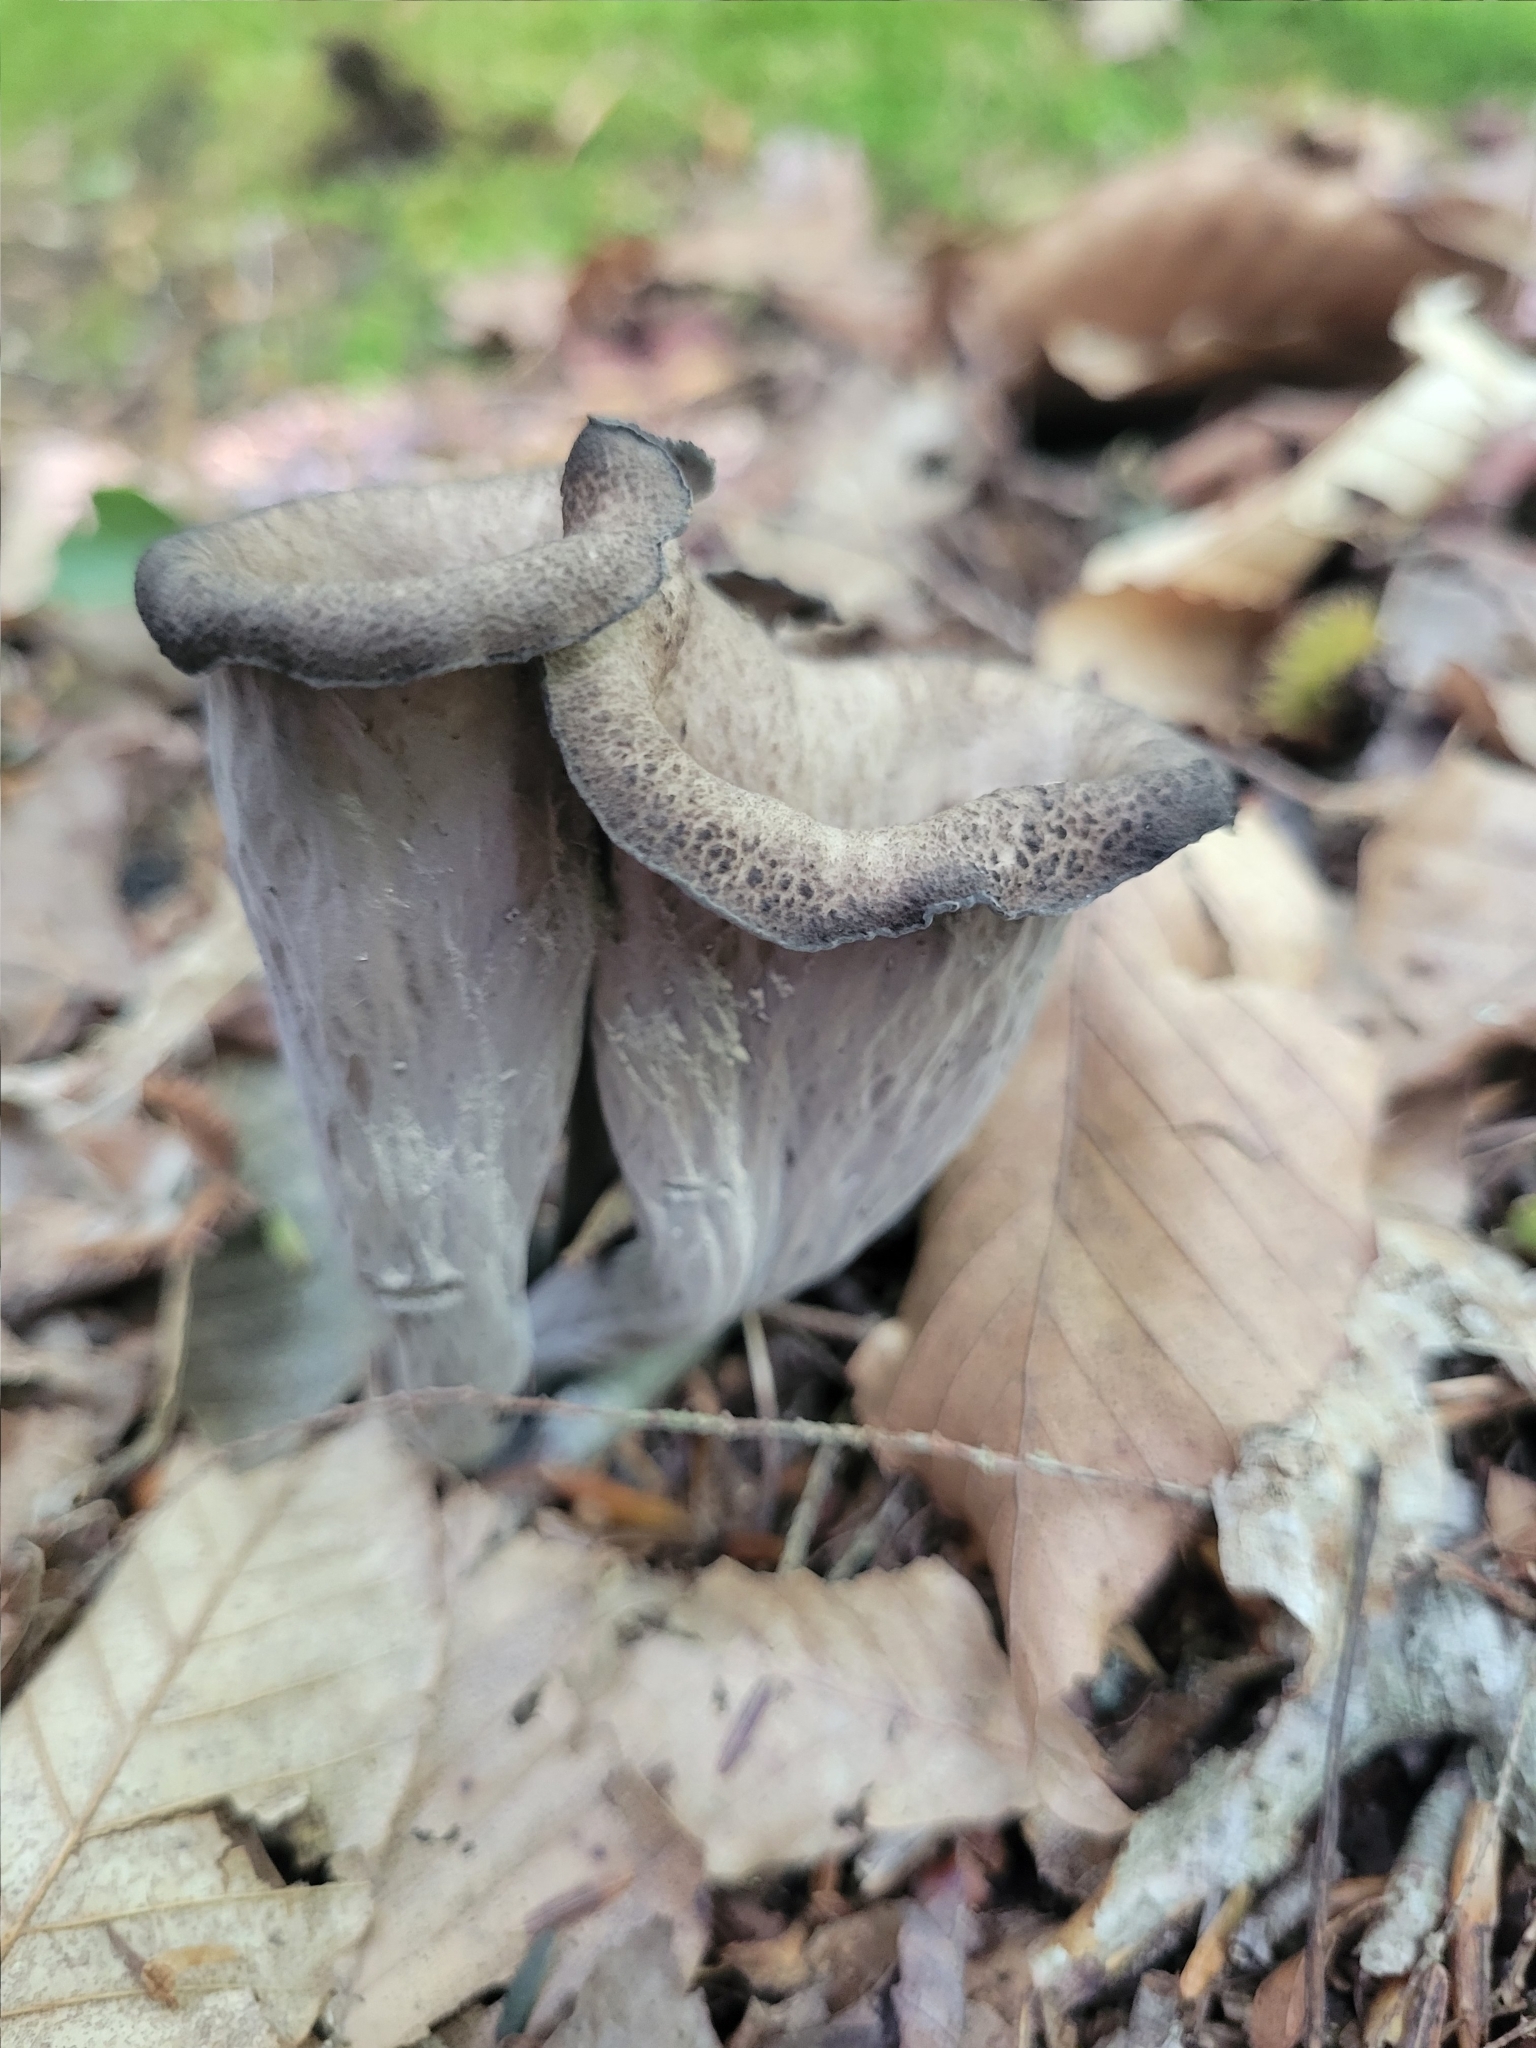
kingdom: Fungi
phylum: Basidiomycota
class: Agaricomycetes
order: Cantharellales
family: Hydnaceae
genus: Craterellus
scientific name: Craterellus cornucopioides
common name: Horn of plenty
